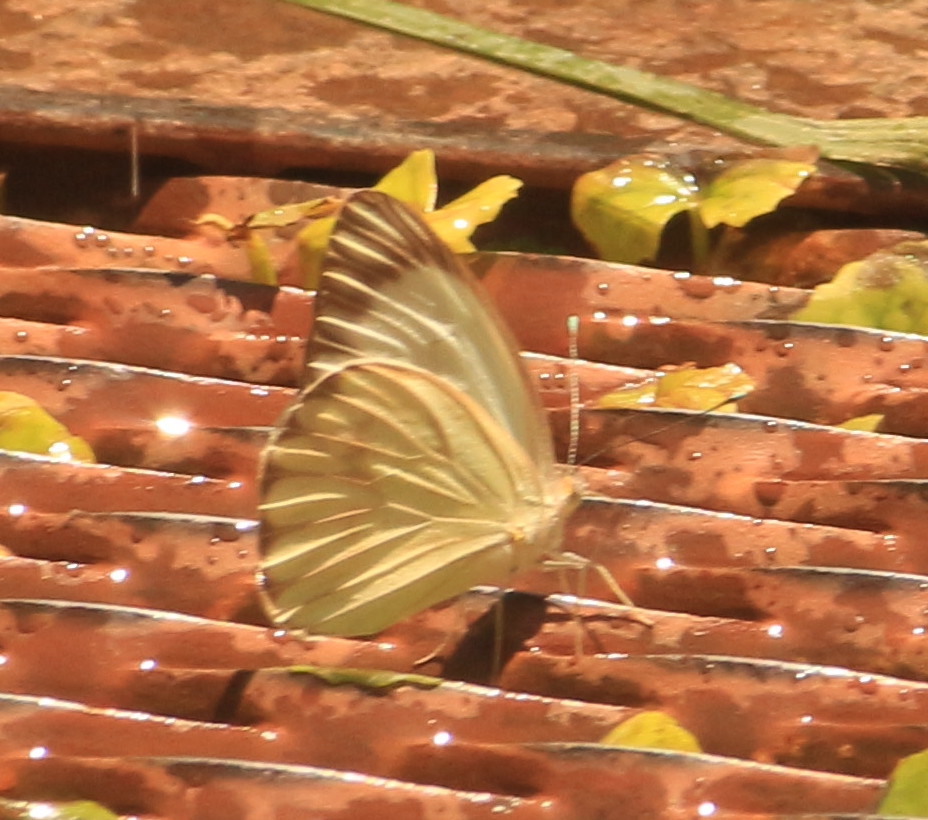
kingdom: Animalia
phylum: Arthropoda
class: Insecta
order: Lepidoptera
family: Pieridae
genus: Ascia
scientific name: Ascia monuste
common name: Great southern white
